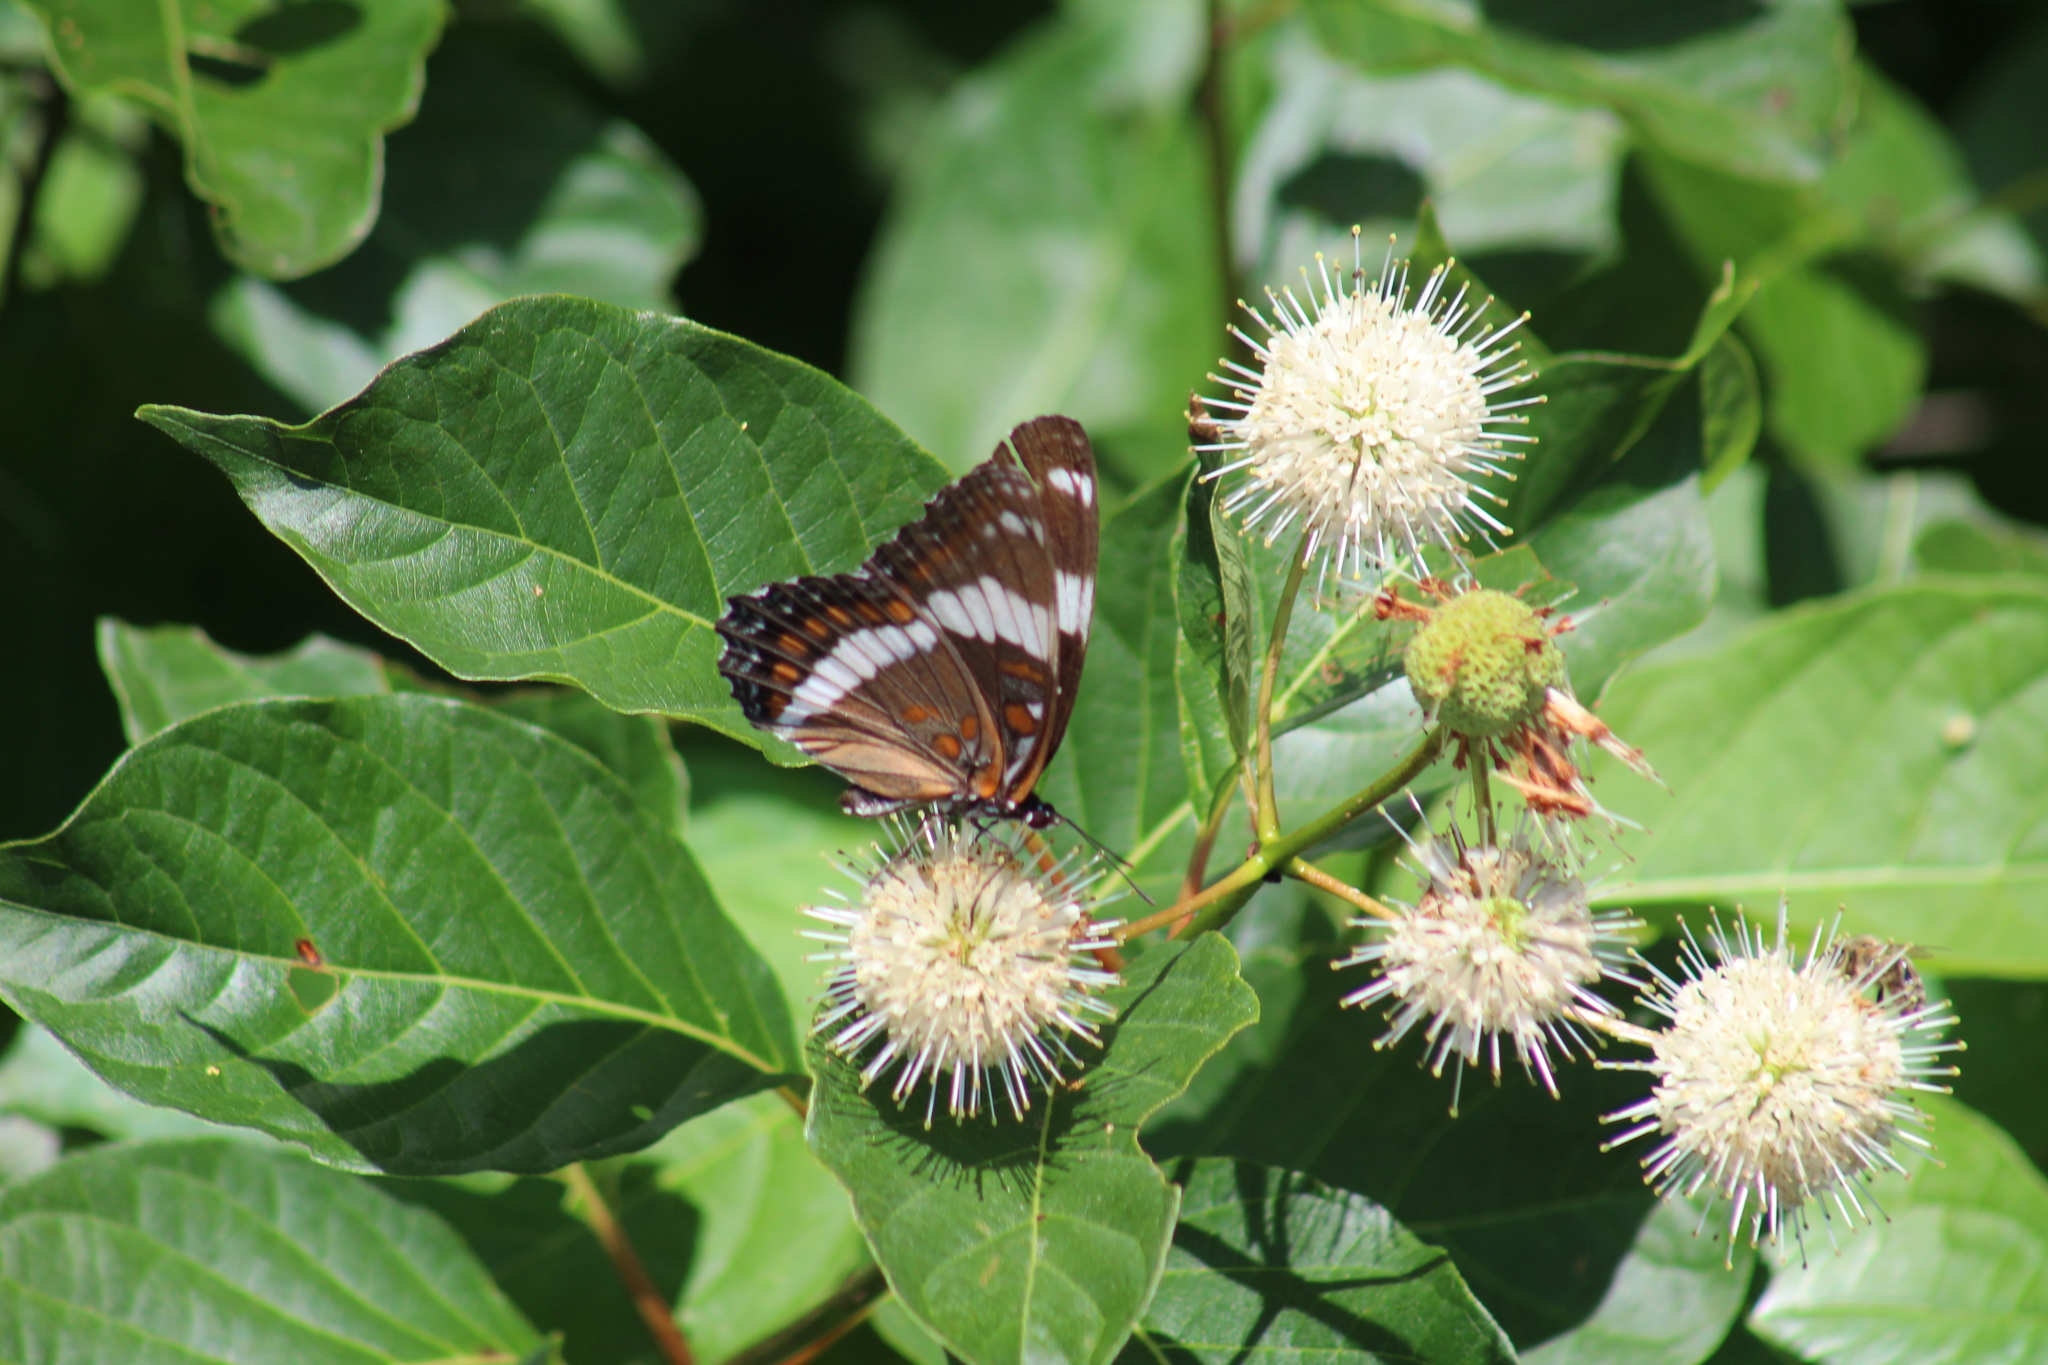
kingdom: Animalia
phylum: Arthropoda
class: Insecta
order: Lepidoptera
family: Nymphalidae
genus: Limenitis
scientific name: Limenitis arthemis
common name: Red-spotted admiral
